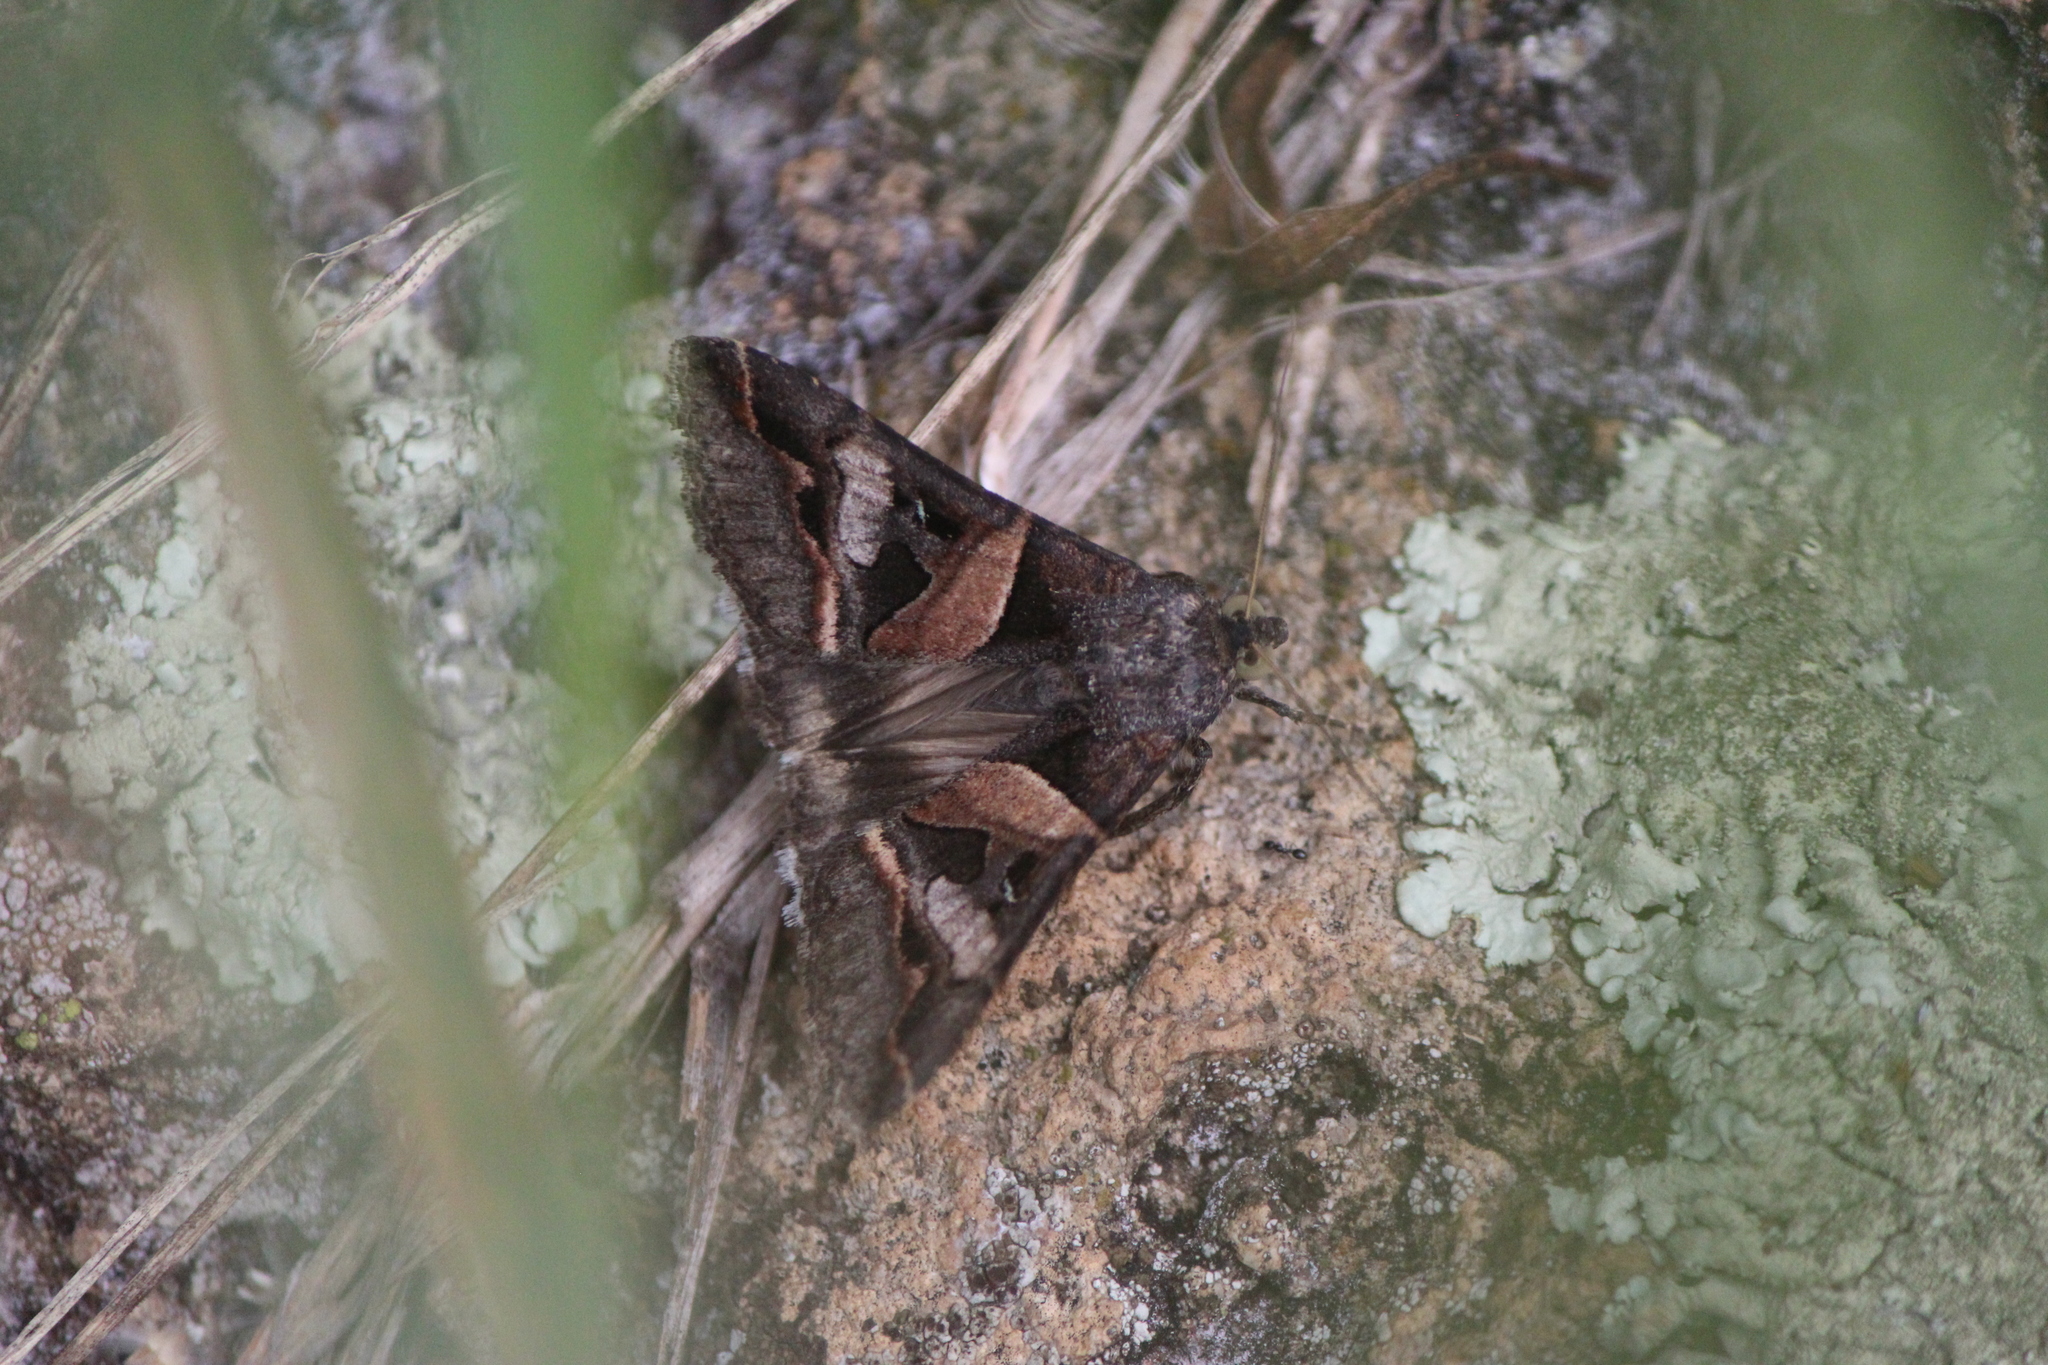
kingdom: Animalia
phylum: Arthropoda
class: Insecta
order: Lepidoptera
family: Erebidae
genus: Melipotis
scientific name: Melipotis indomita
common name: Moth
